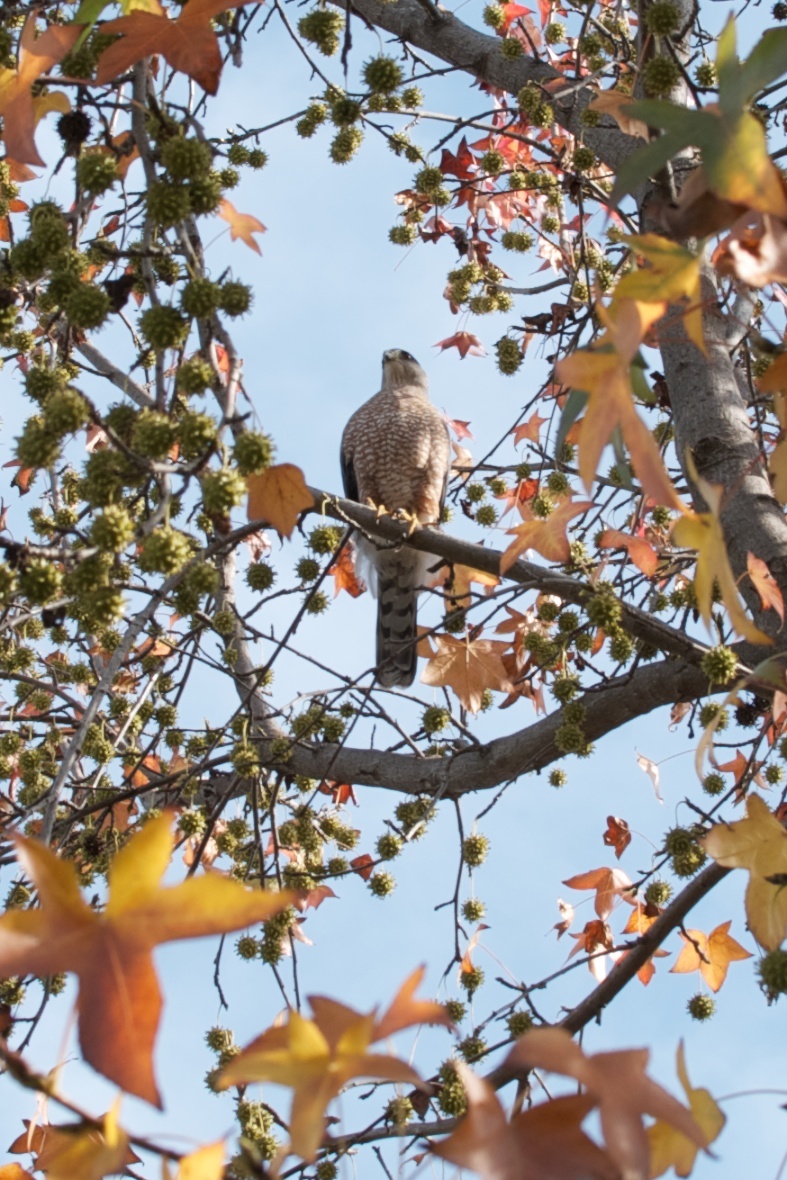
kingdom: Animalia
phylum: Chordata
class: Aves
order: Accipitriformes
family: Accipitridae
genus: Accipiter
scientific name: Accipiter cooperii
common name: Cooper's hawk
